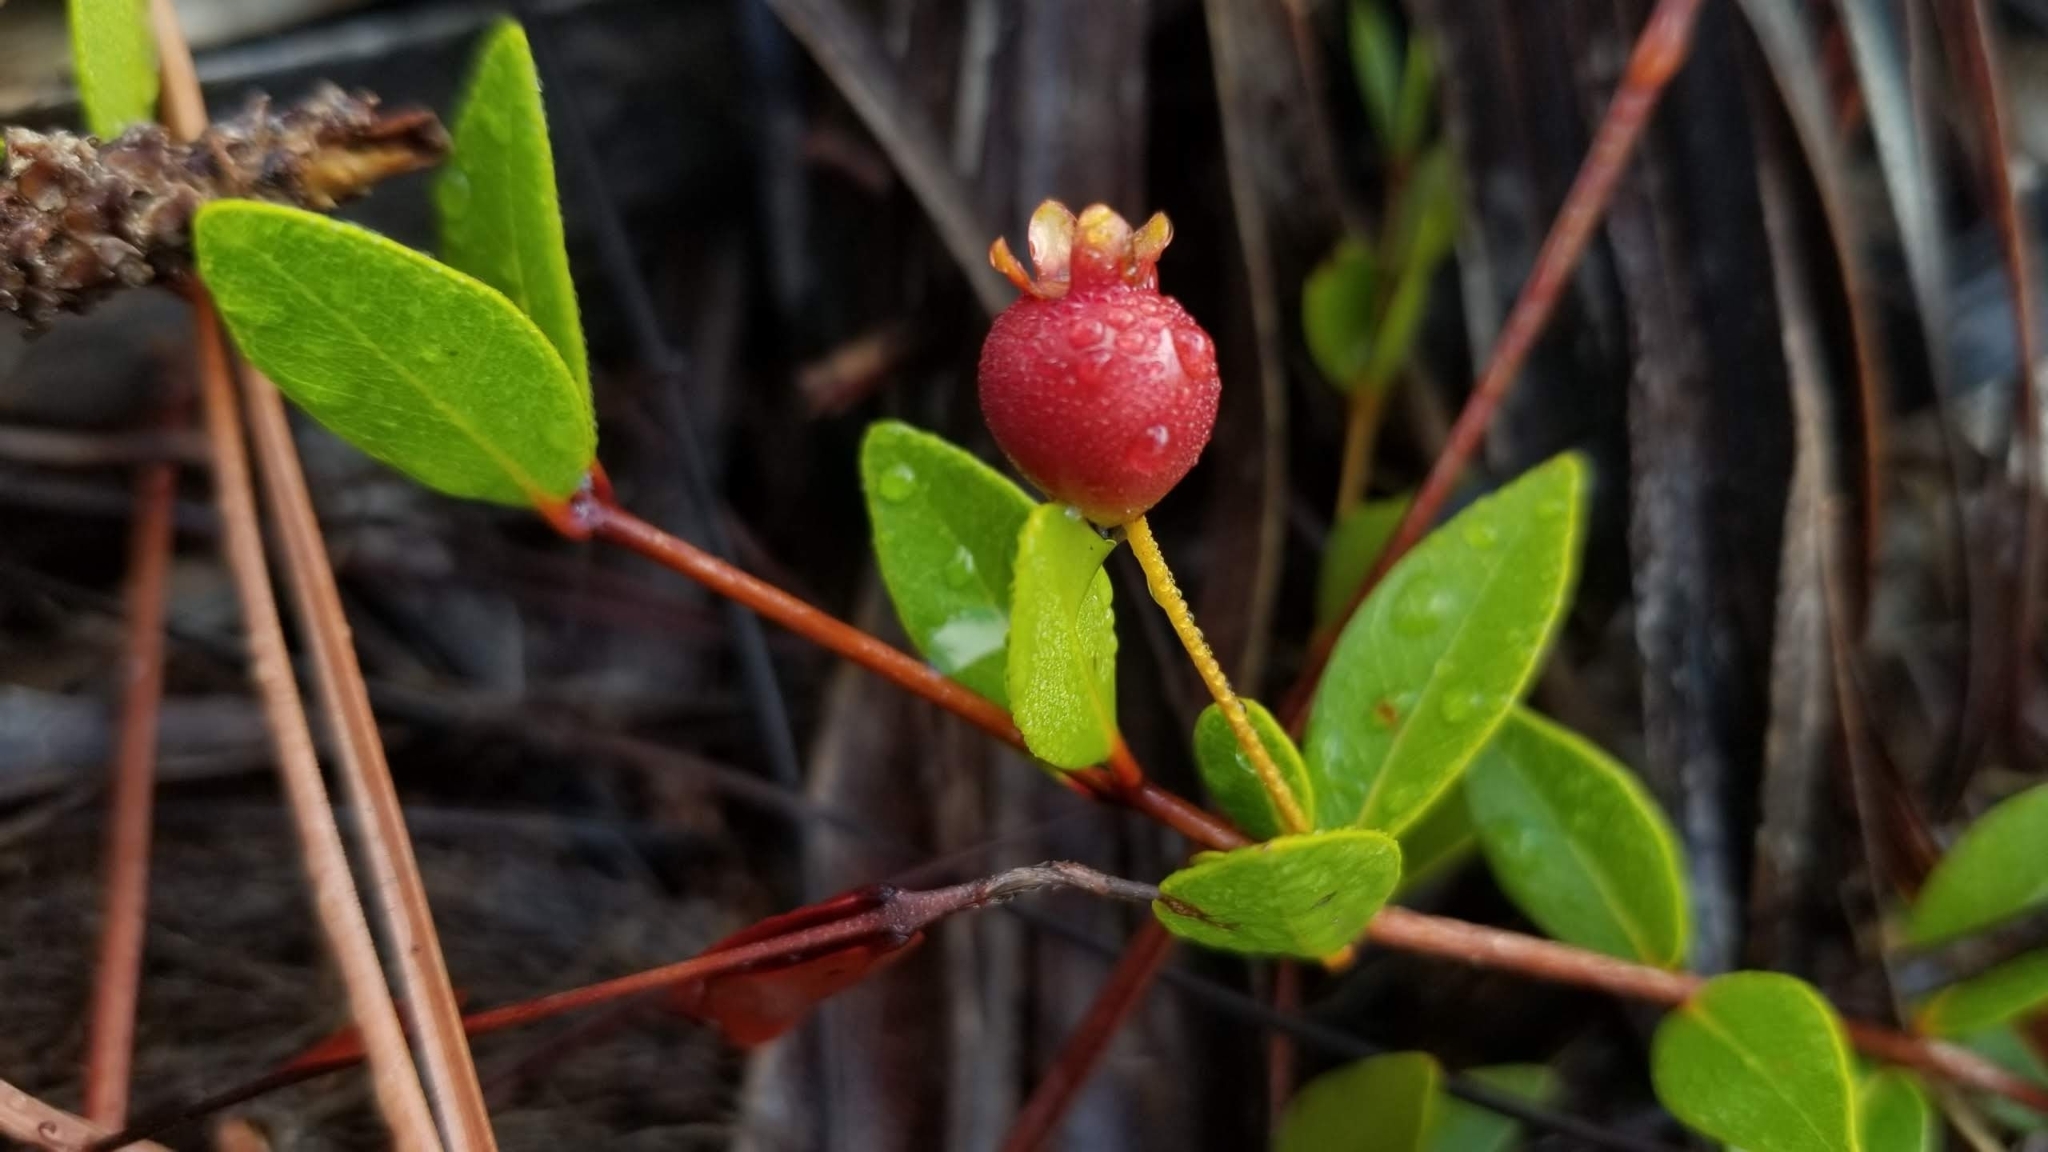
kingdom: Plantae
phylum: Tracheophyta
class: Magnoliopsida
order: Myrtales
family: Myrtaceae
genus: Mosiera
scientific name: Mosiera longipes
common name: Bahama stopper
